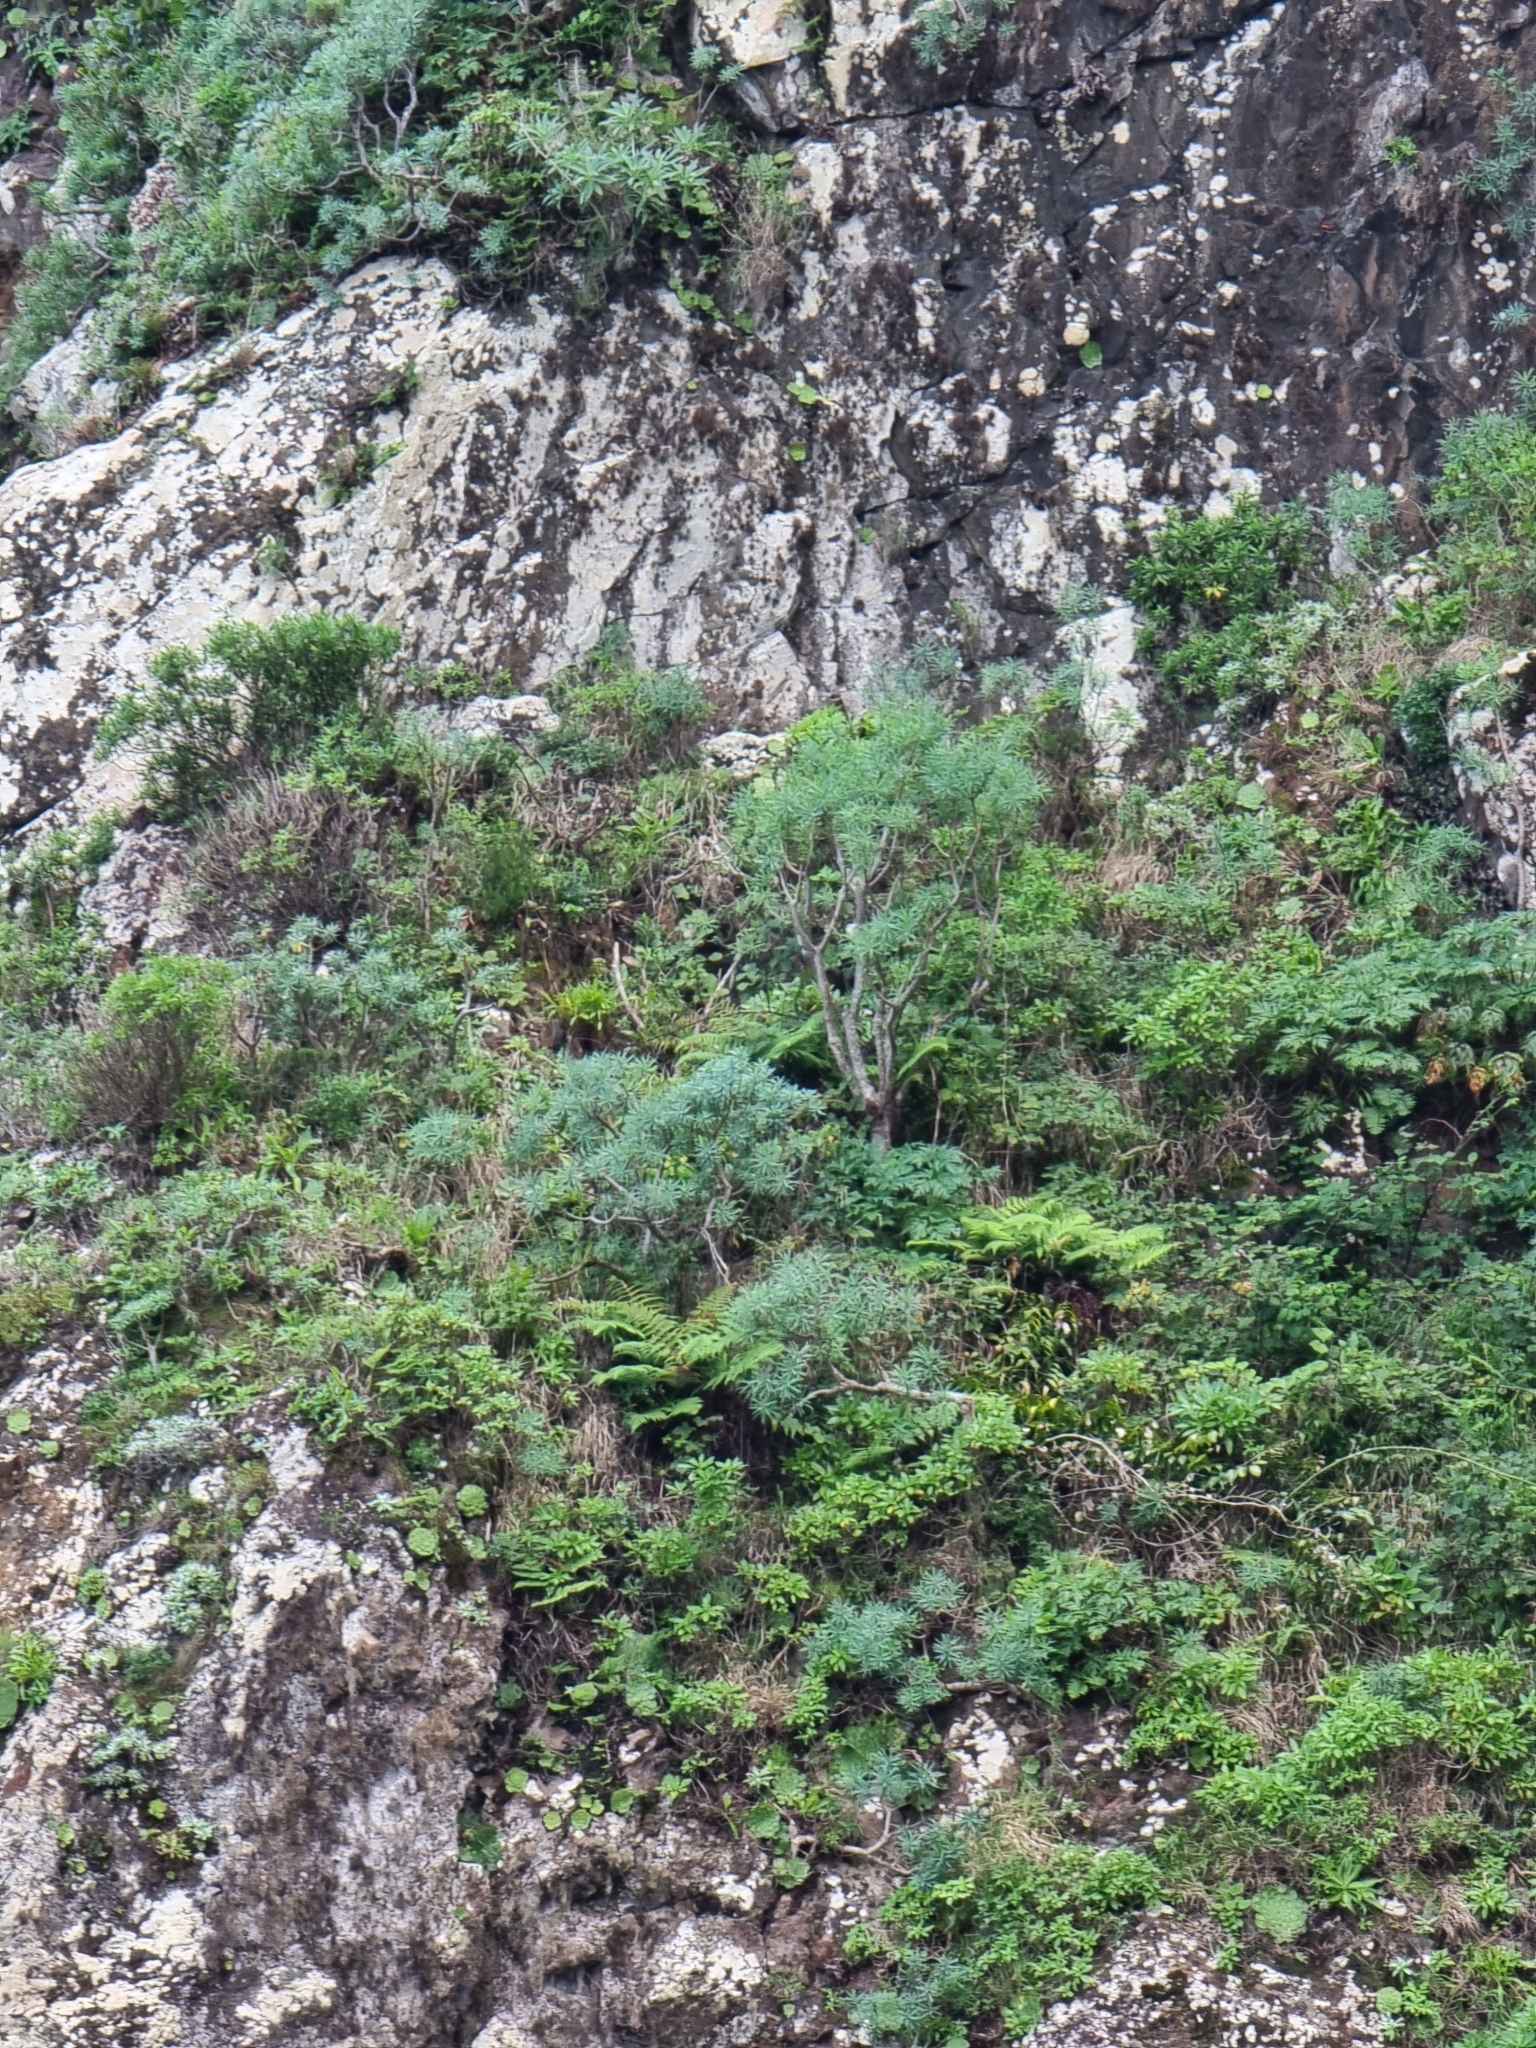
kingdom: Plantae
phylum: Tracheophyta
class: Magnoliopsida
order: Malpighiales
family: Euphorbiaceae
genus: Euphorbia
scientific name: Euphorbia piscatoria
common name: Fish-stunning spurge
